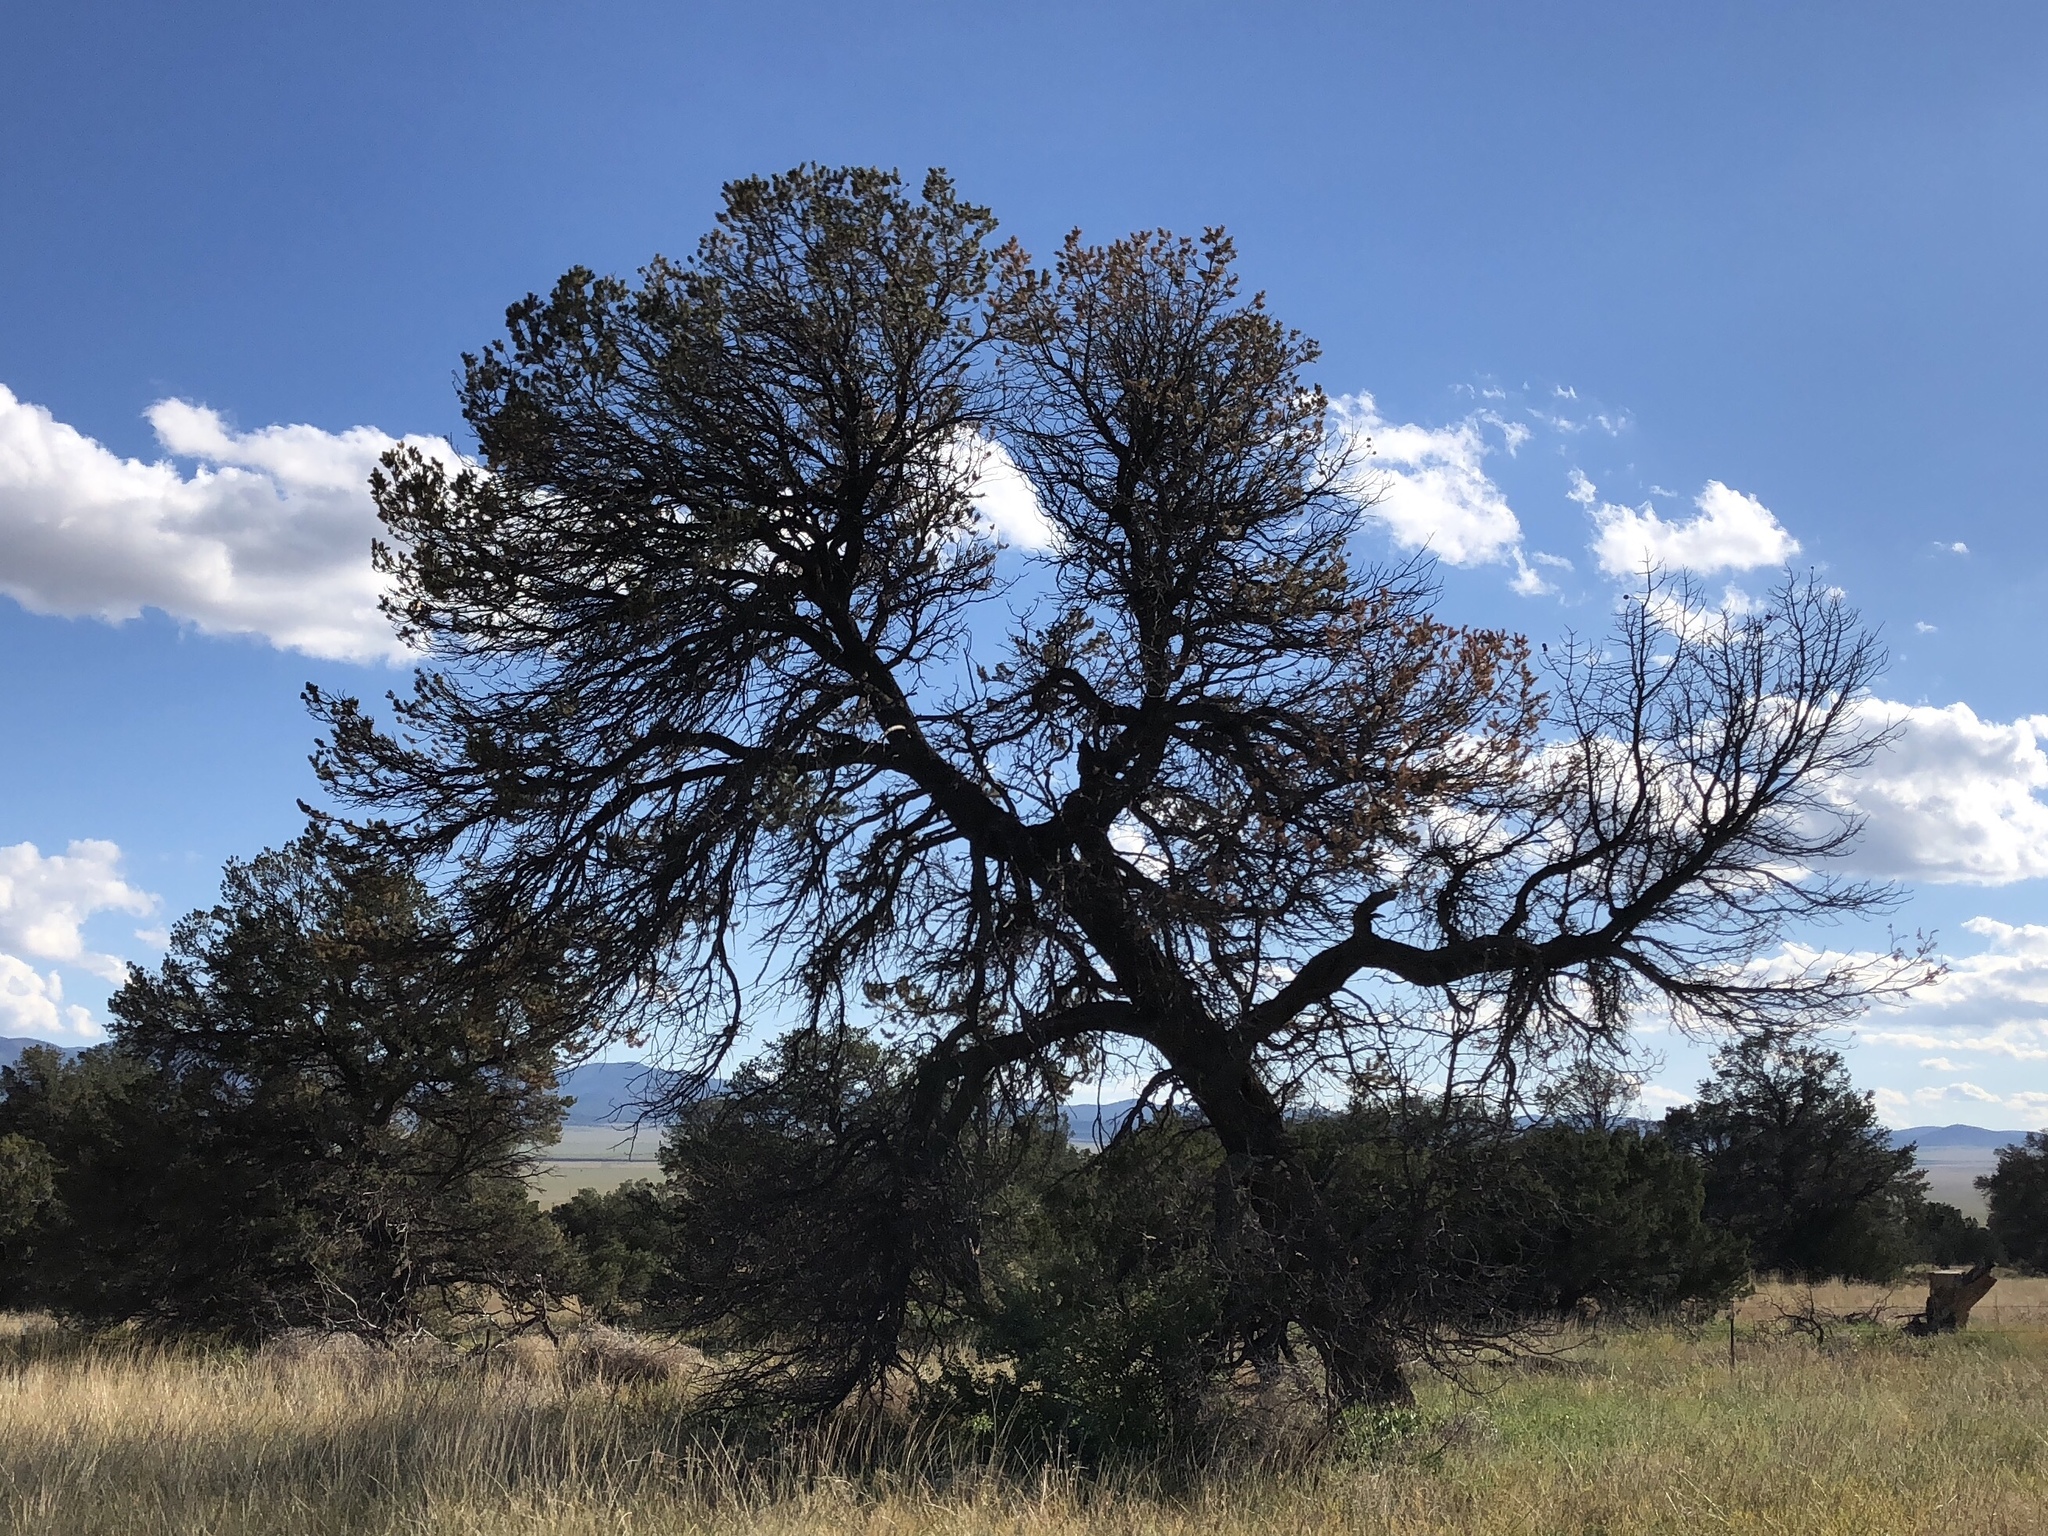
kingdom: Plantae
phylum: Tracheophyta
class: Pinopsida
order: Pinales
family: Pinaceae
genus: Pinus
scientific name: Pinus edulis
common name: Colorado pinyon
